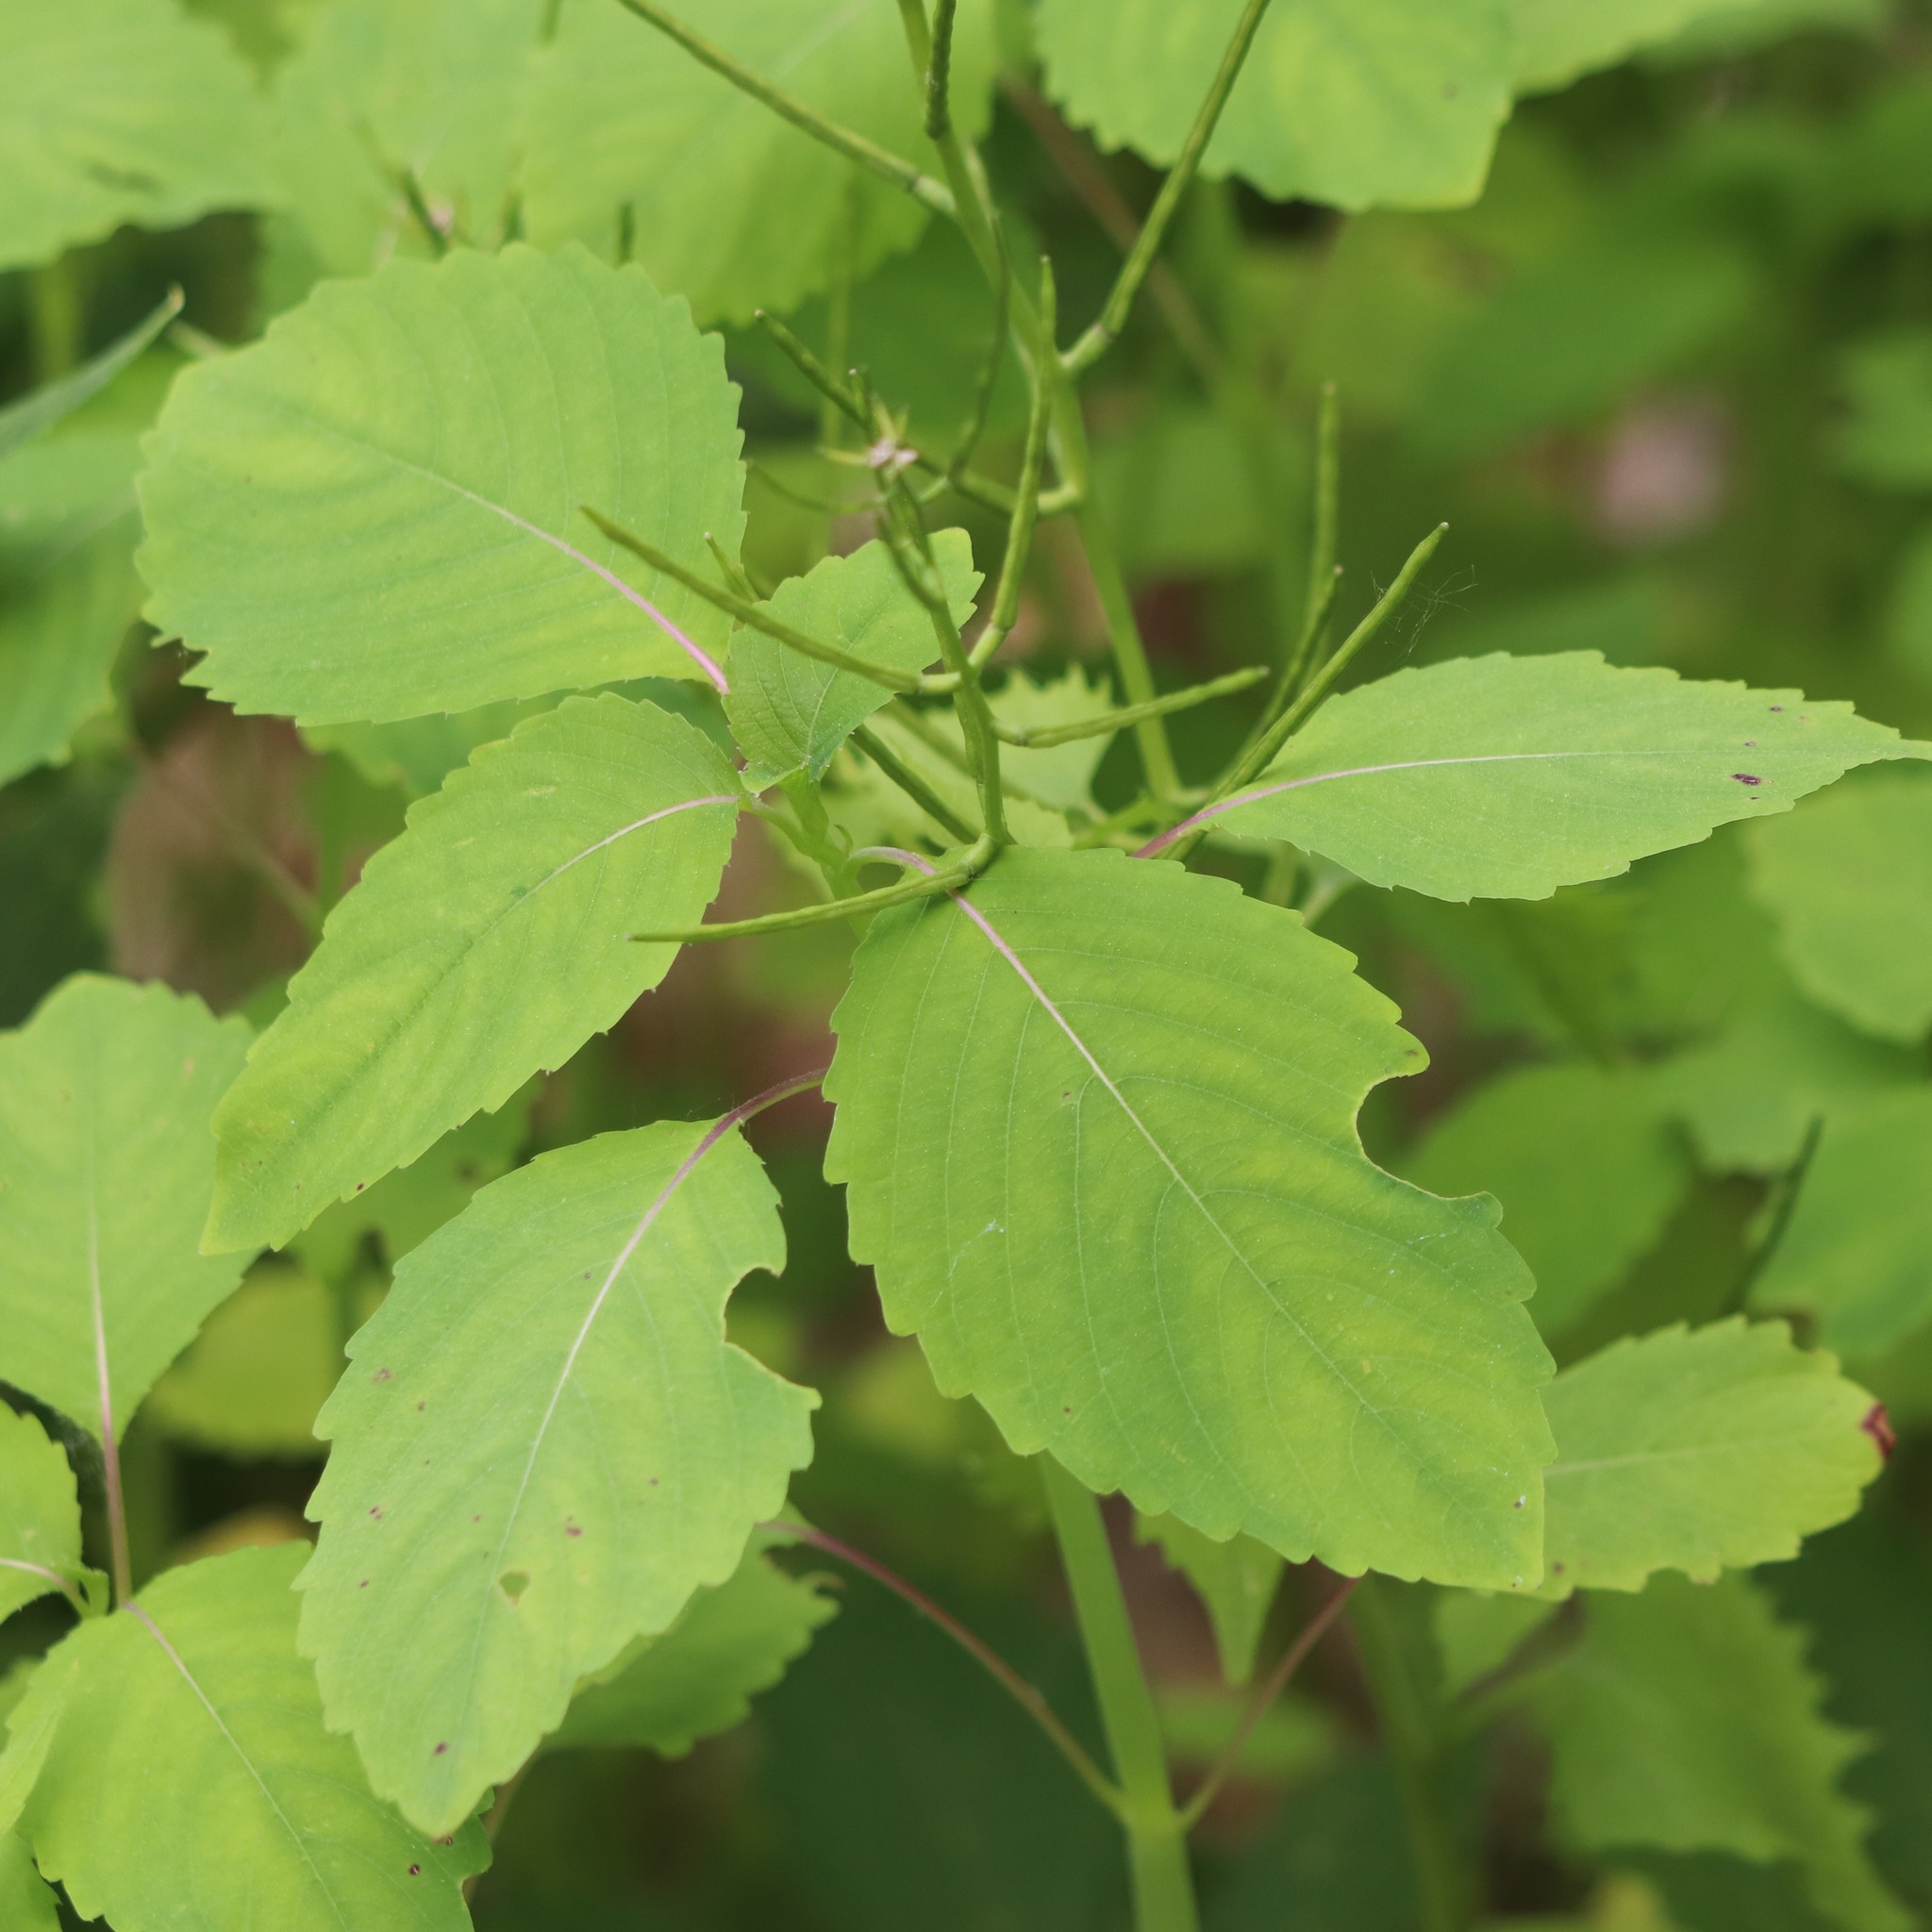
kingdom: Plantae
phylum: Tracheophyta
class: Magnoliopsida
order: Ericales
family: Balsaminaceae
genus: Impatiens
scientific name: Impatiens pallida
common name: Pale snapweed
